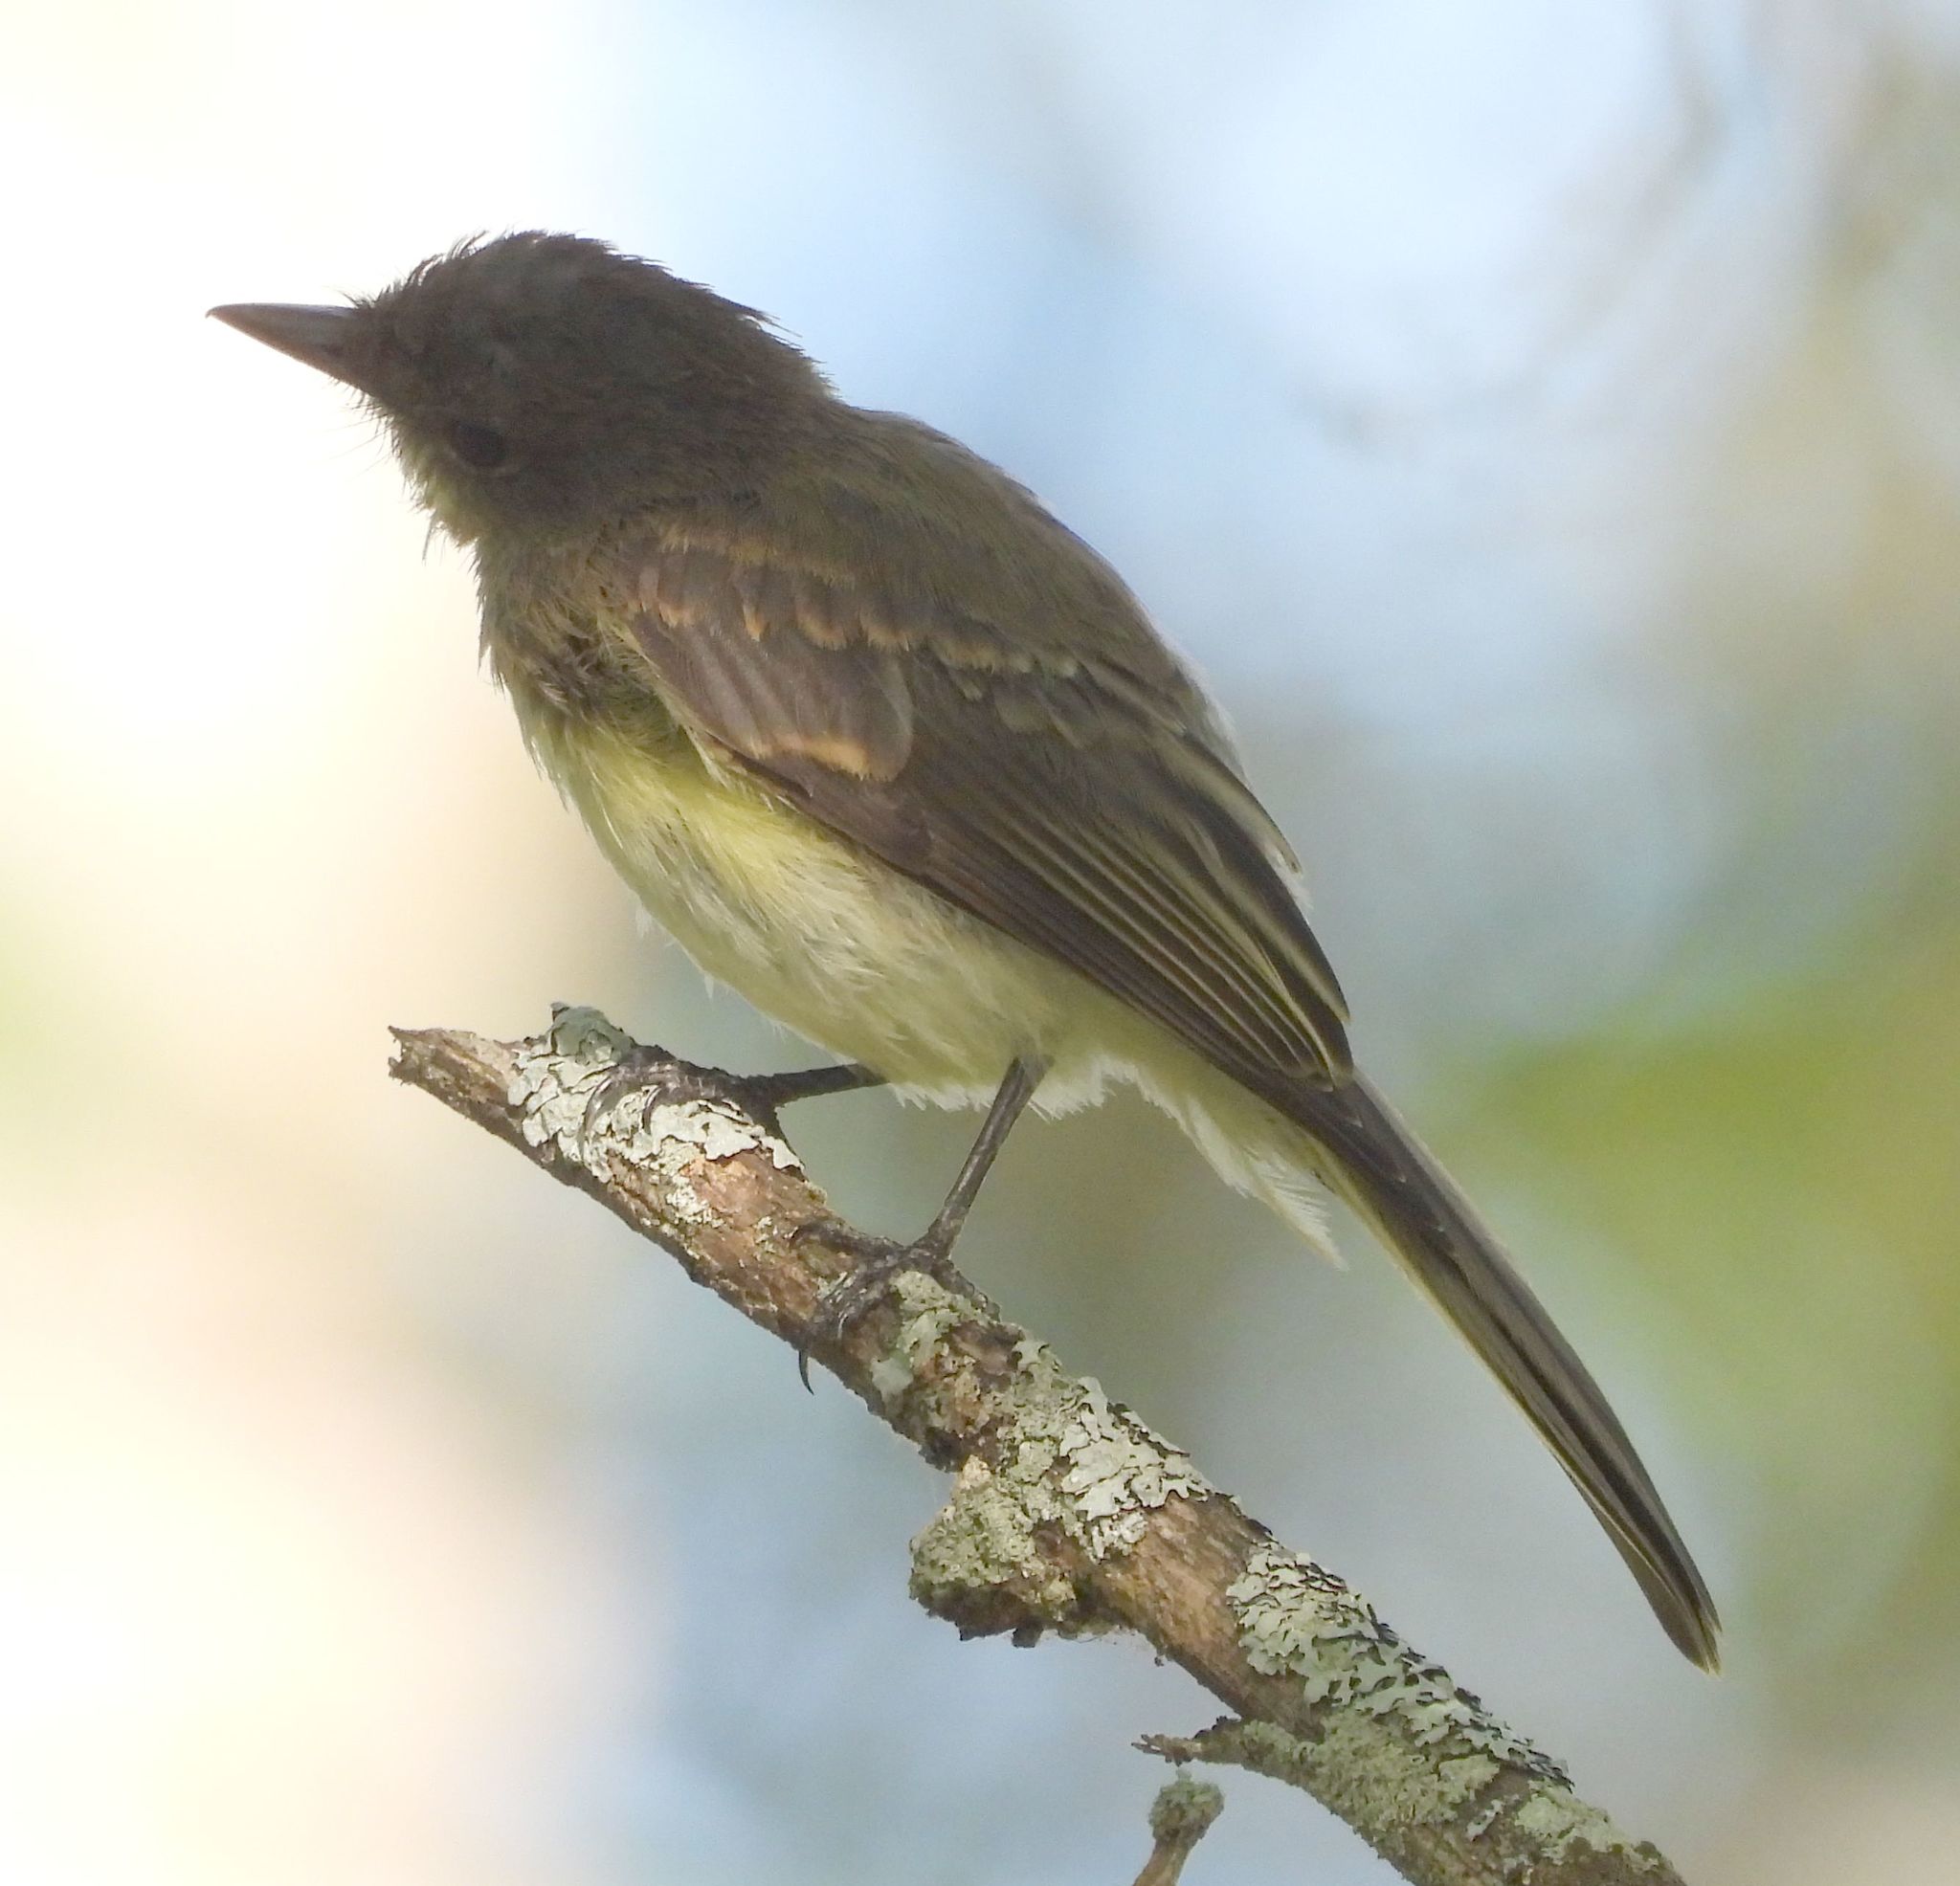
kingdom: Animalia
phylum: Chordata
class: Aves
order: Passeriformes
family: Tyrannidae
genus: Sayornis
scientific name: Sayornis phoebe
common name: Eastern phoebe
